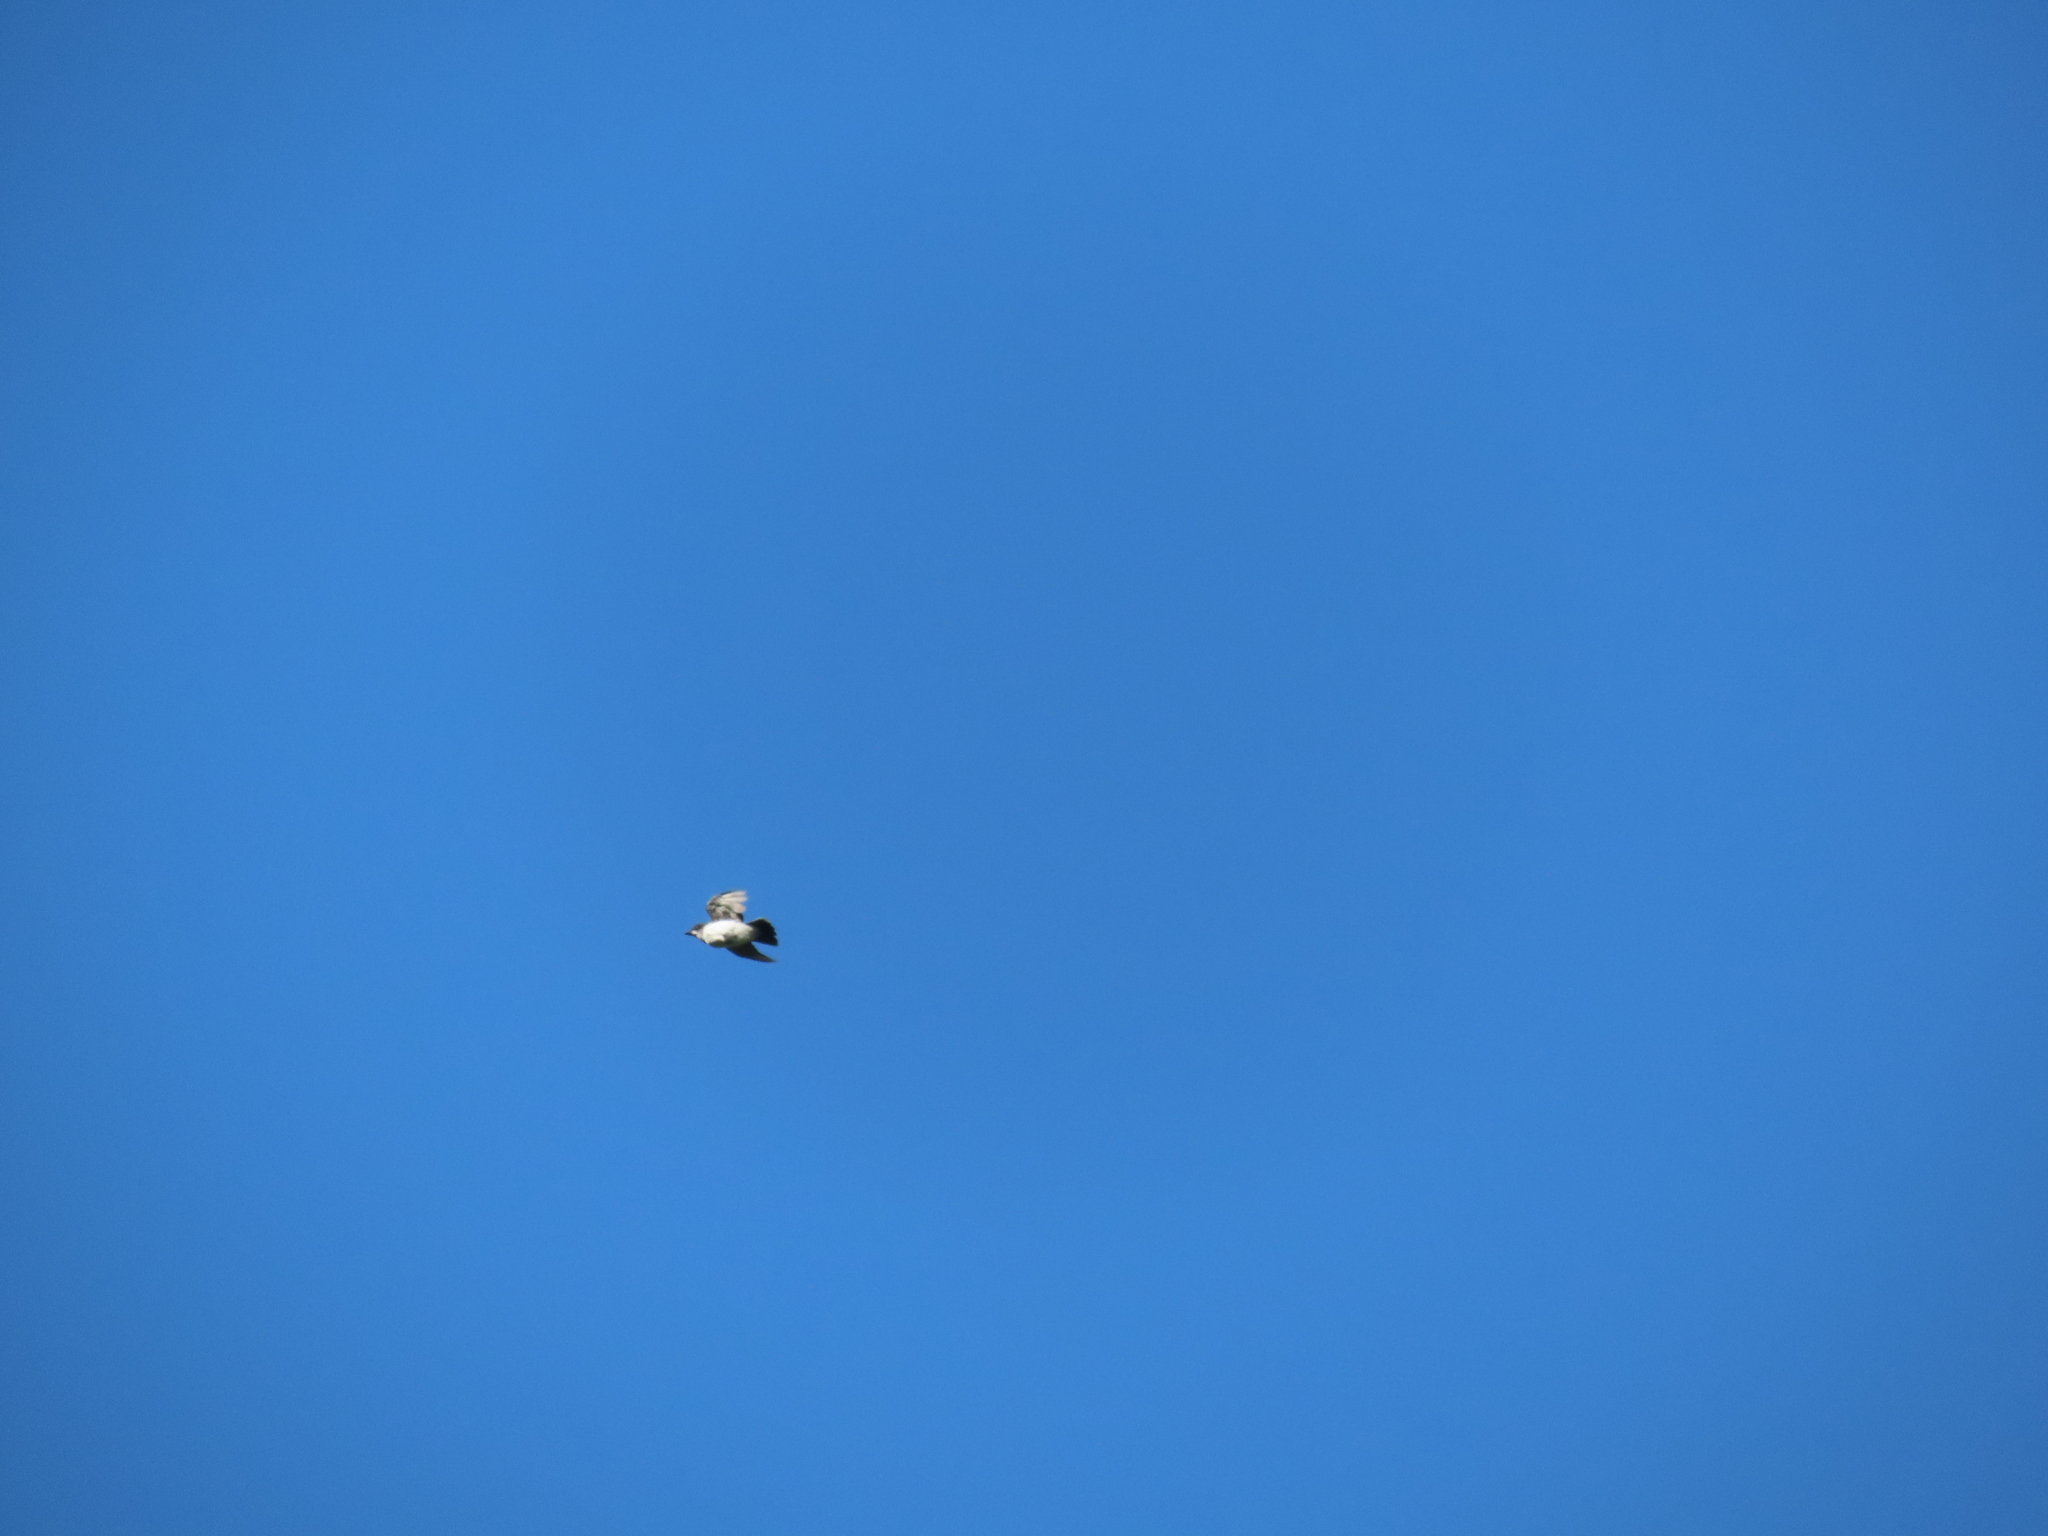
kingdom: Animalia
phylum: Chordata
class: Aves
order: Passeriformes
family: Tyrannidae
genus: Tyrannus
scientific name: Tyrannus tyrannus
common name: Eastern kingbird
